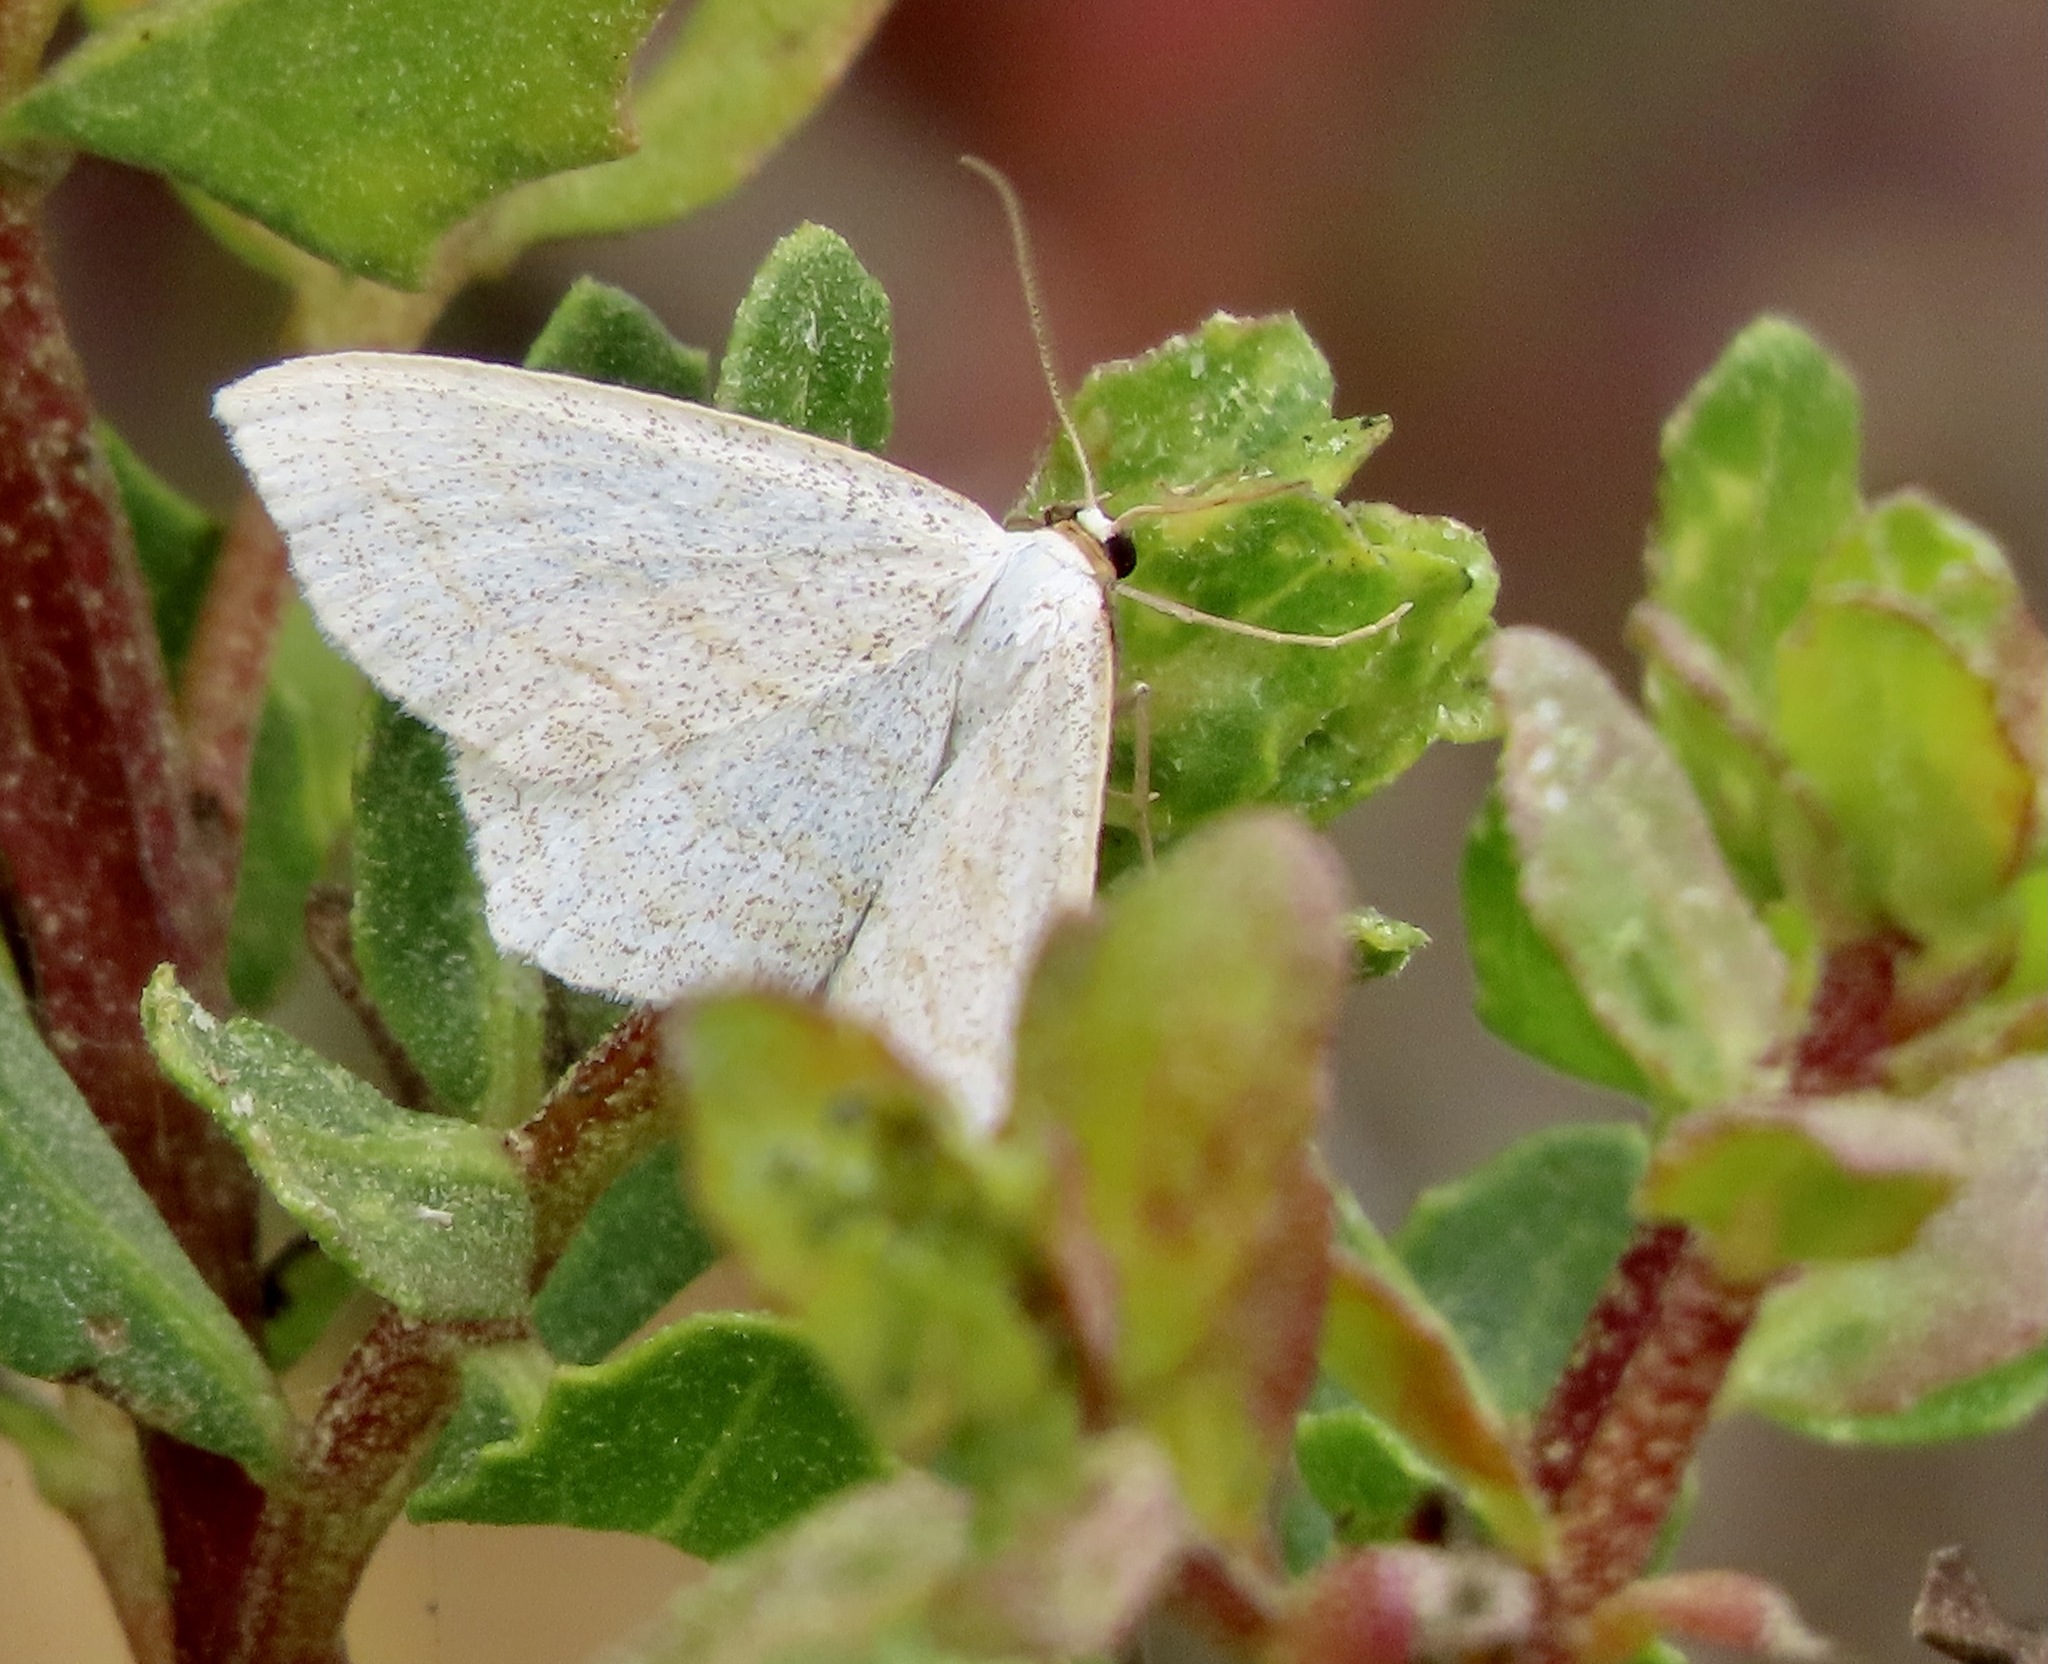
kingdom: Animalia
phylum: Arthropoda
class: Insecta
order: Lepidoptera
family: Geometridae
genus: Scopula
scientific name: Scopula junctaria
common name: Simple wave
